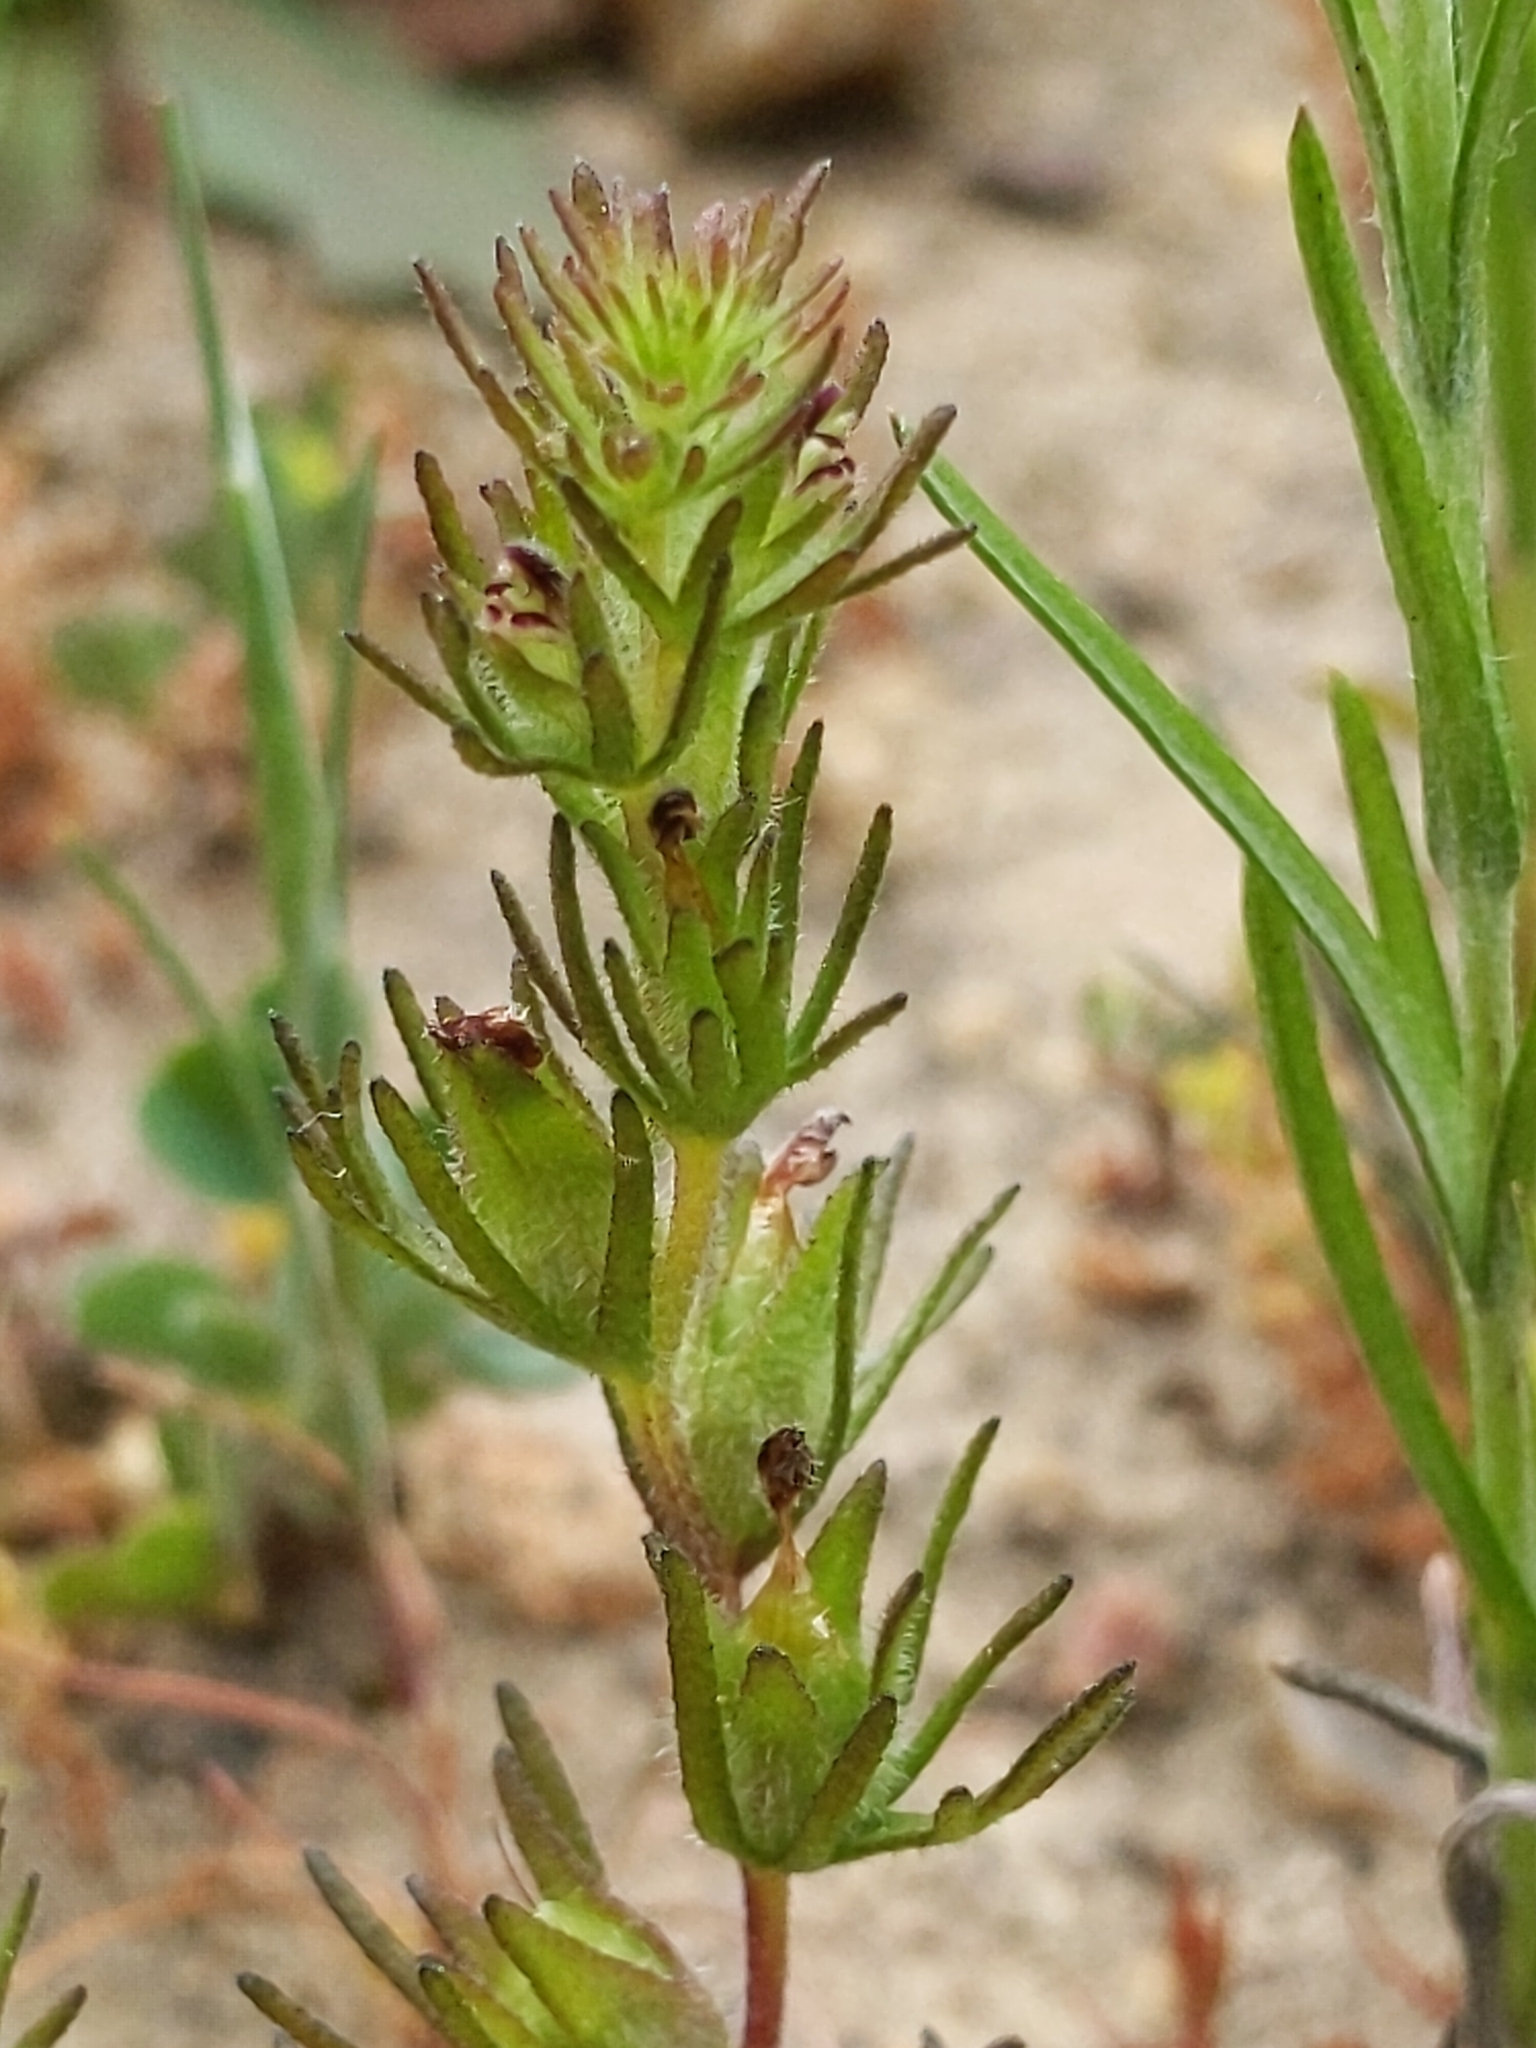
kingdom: Plantae
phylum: Tracheophyta
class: Magnoliopsida
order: Lamiales
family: Orobanchaceae
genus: Triphysaria
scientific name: Triphysaria pusilla
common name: Dwarf false owl-clover
